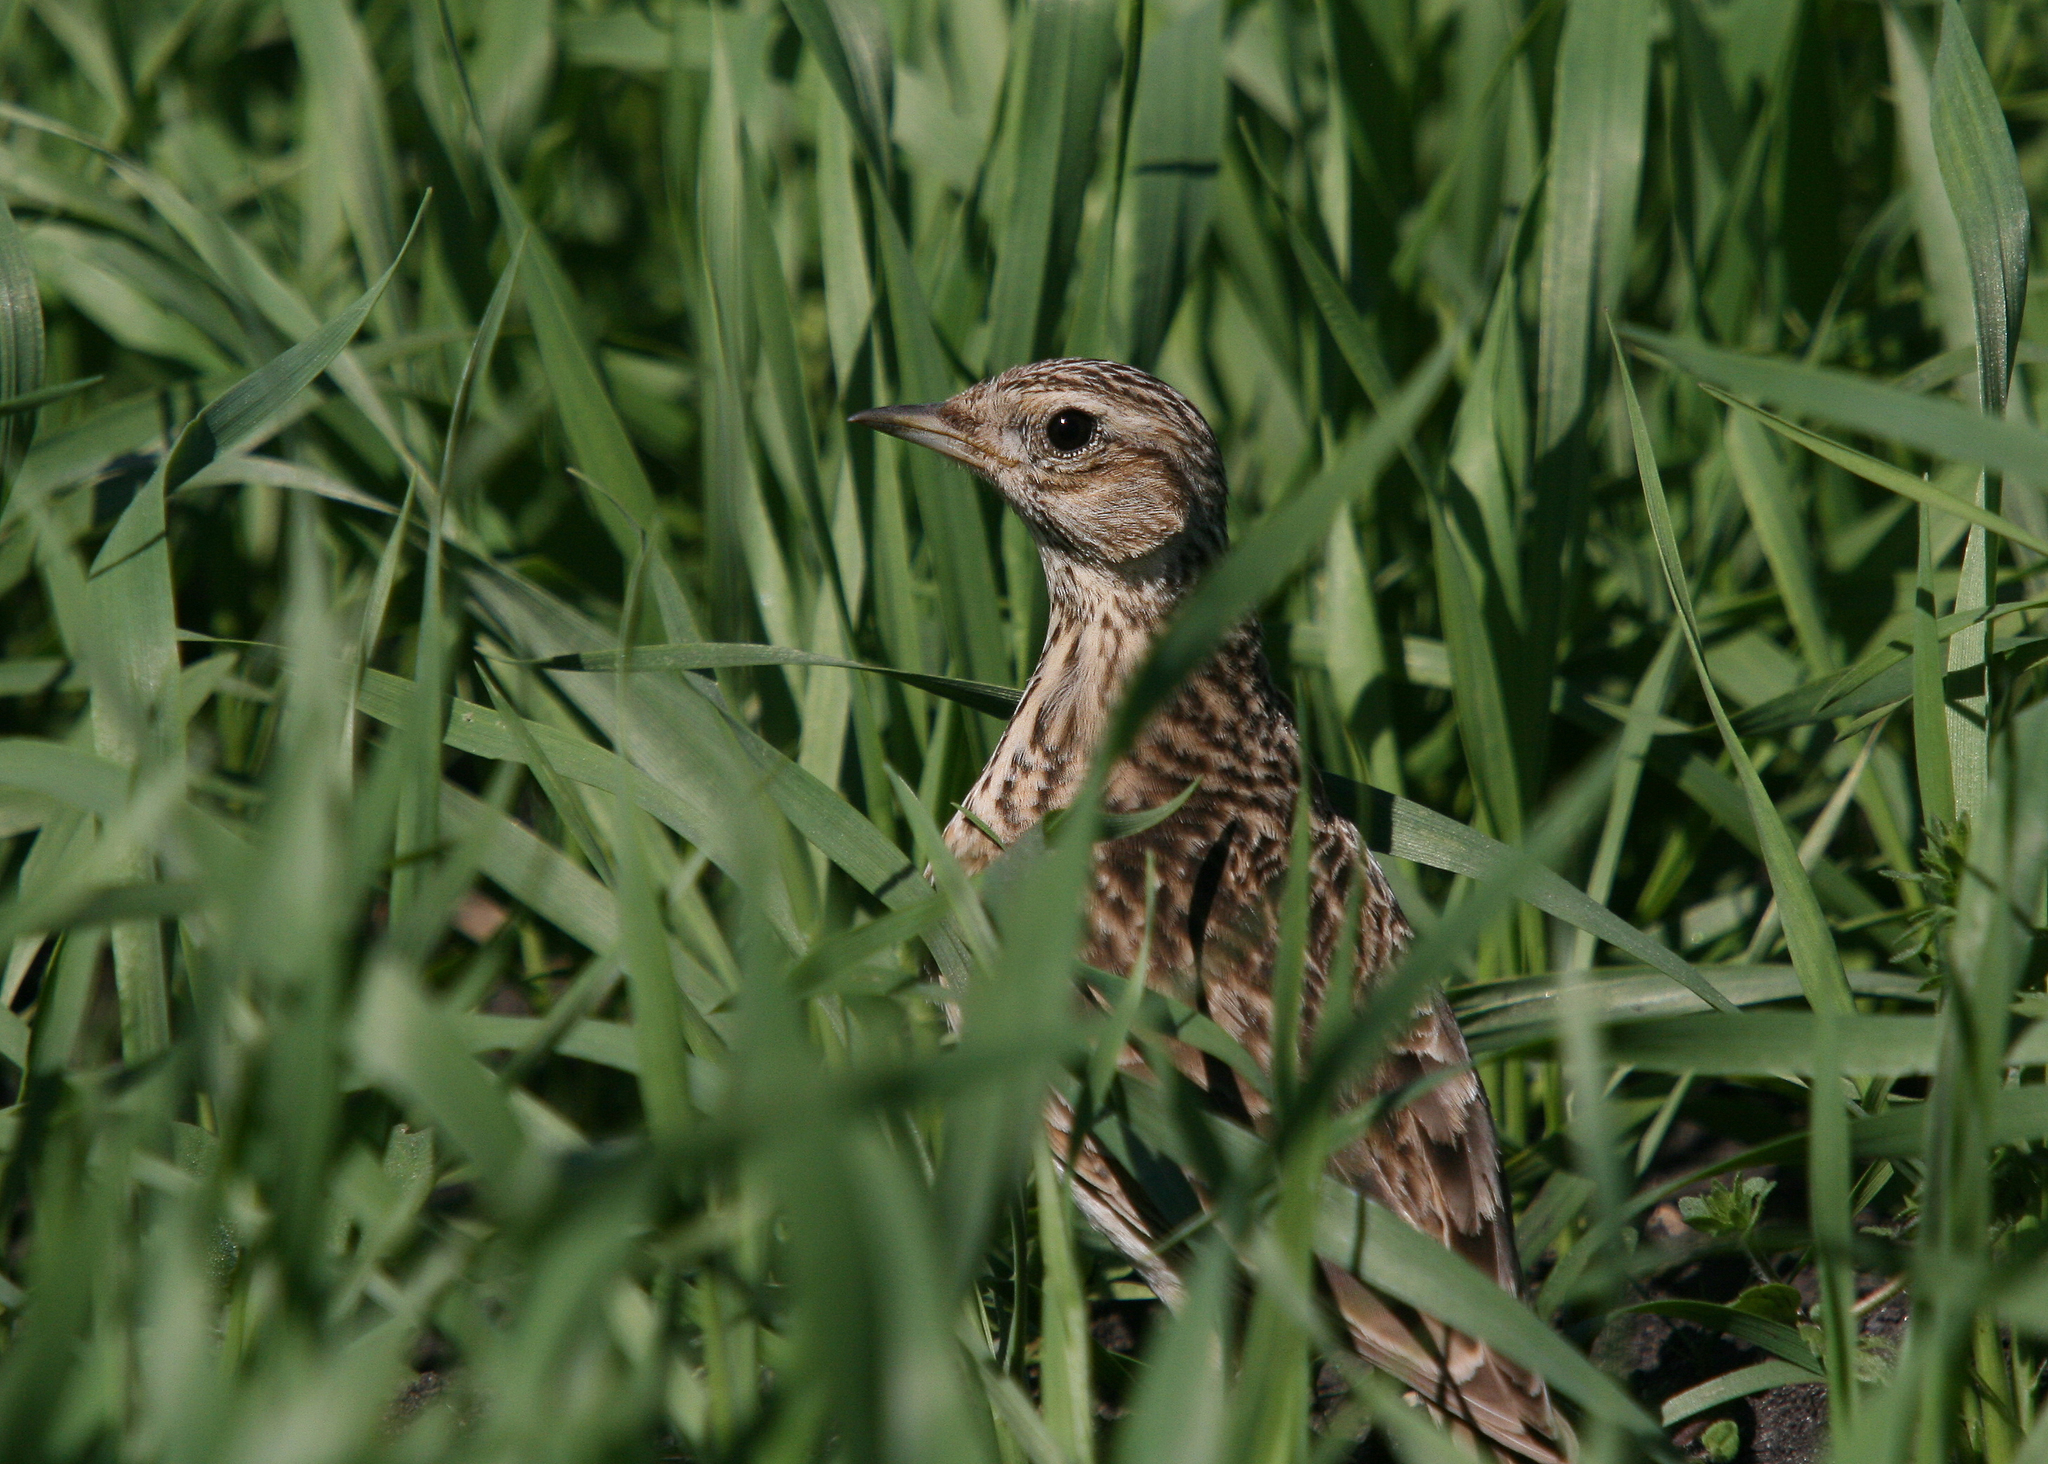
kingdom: Animalia
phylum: Chordata
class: Aves
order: Passeriformes
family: Alaudidae
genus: Alauda
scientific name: Alauda arvensis
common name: Eurasian skylark
